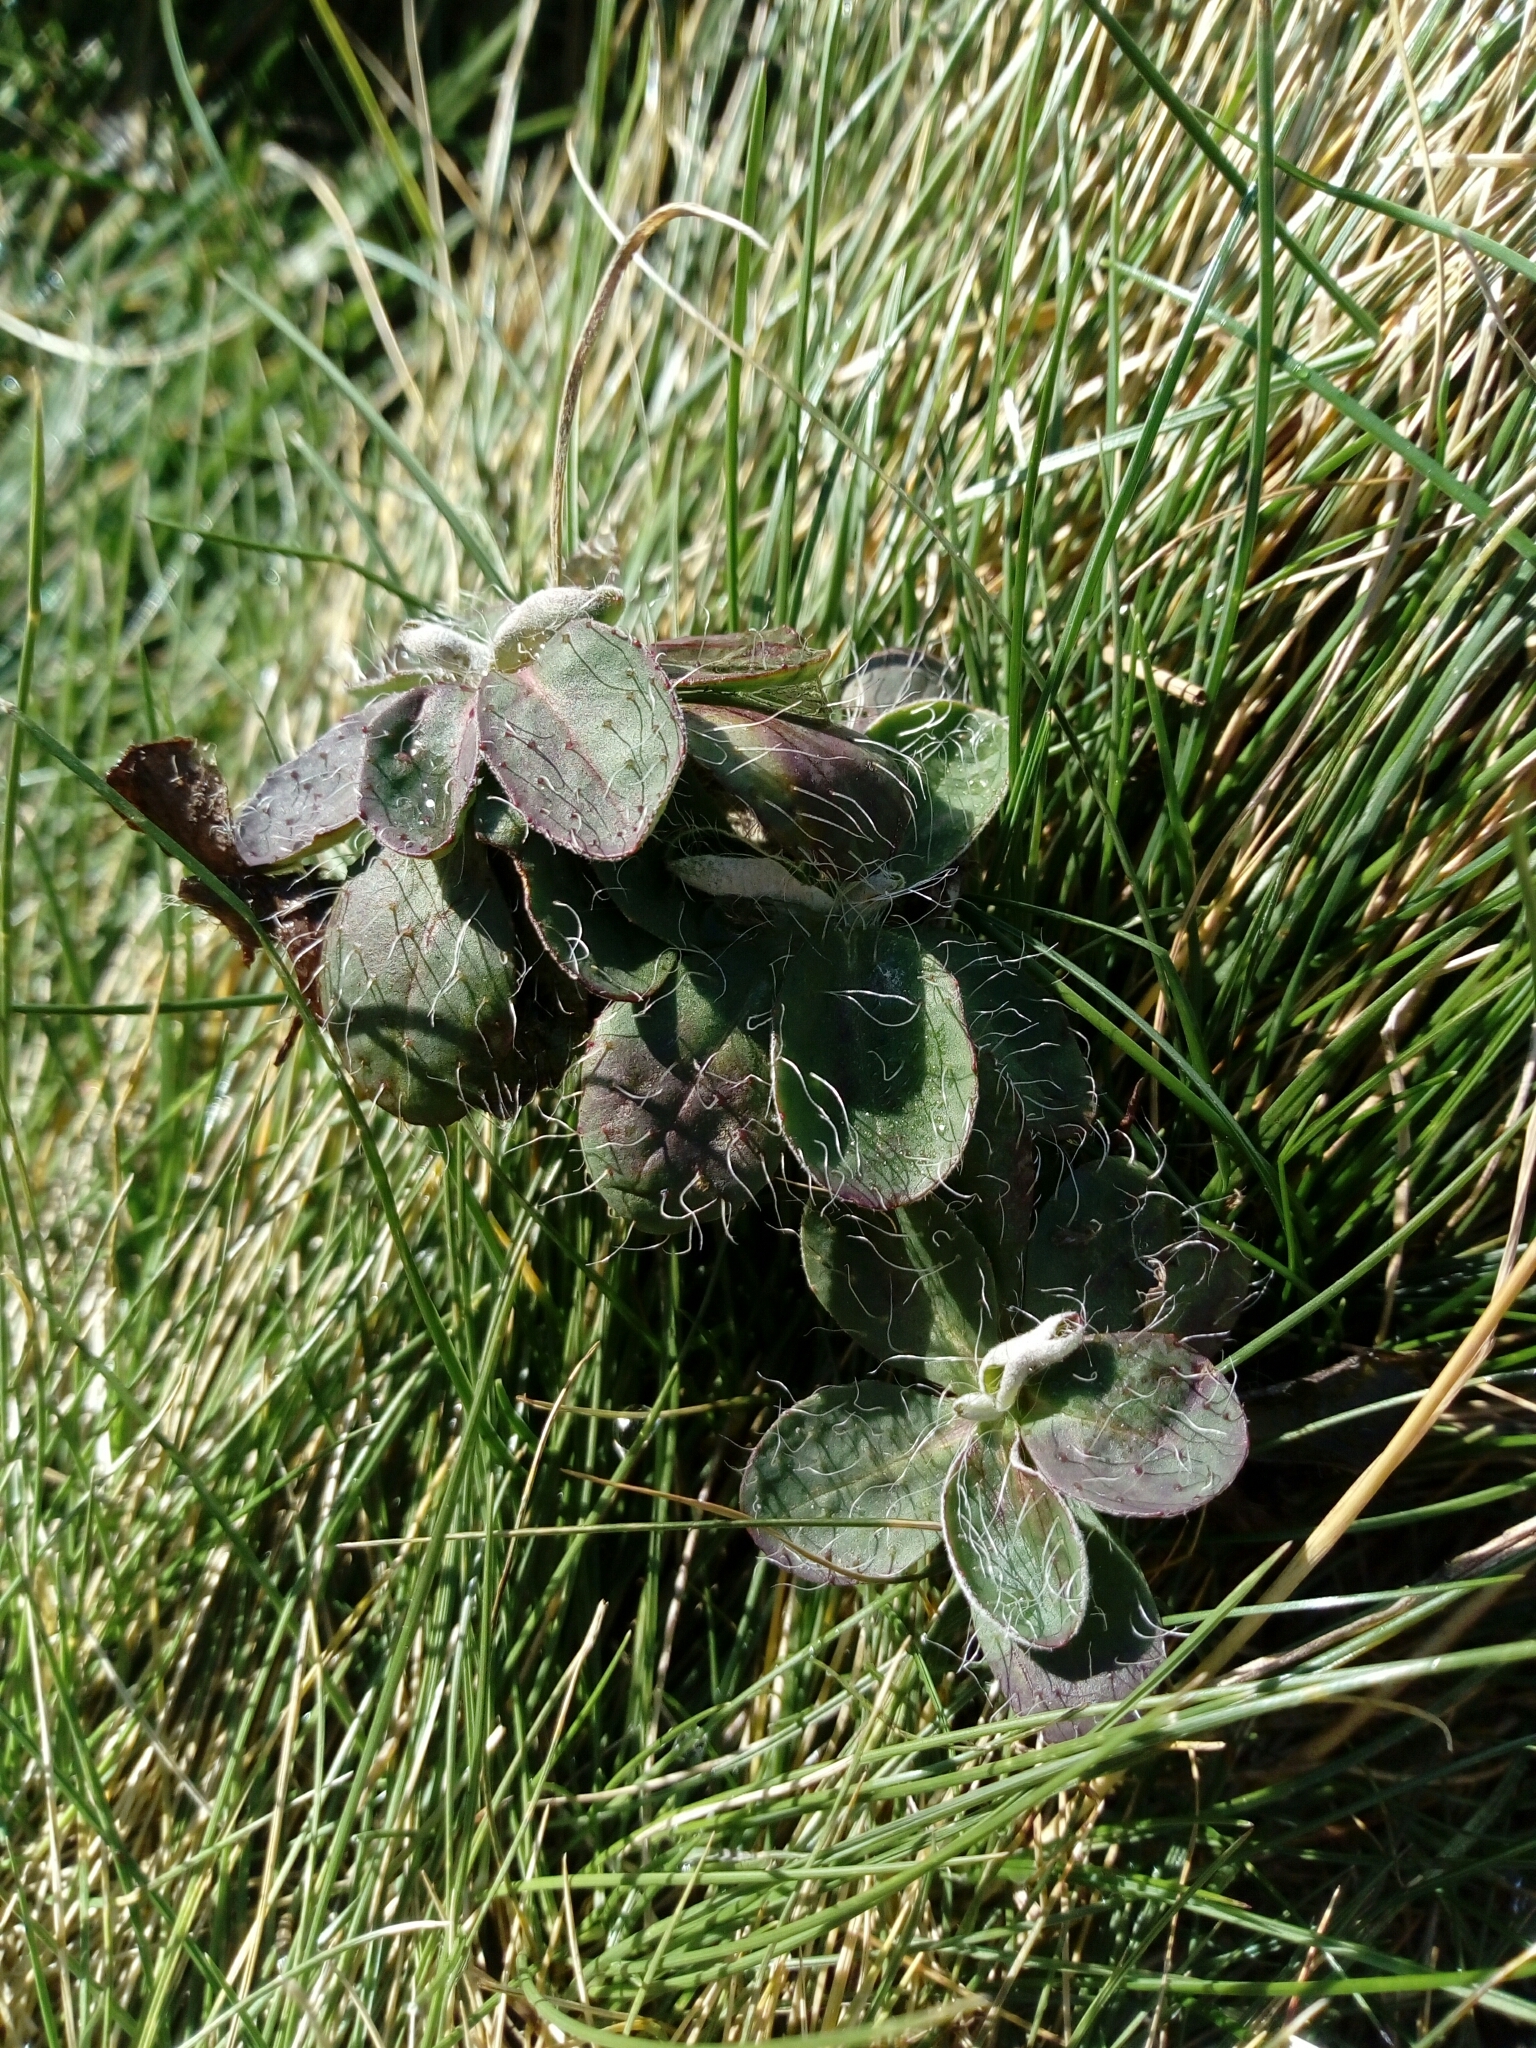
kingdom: Plantae
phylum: Tracheophyta
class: Magnoliopsida
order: Asterales
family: Asteraceae
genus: Pilosella
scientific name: Pilosella officinarum
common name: Mouse-ear hawkweed
